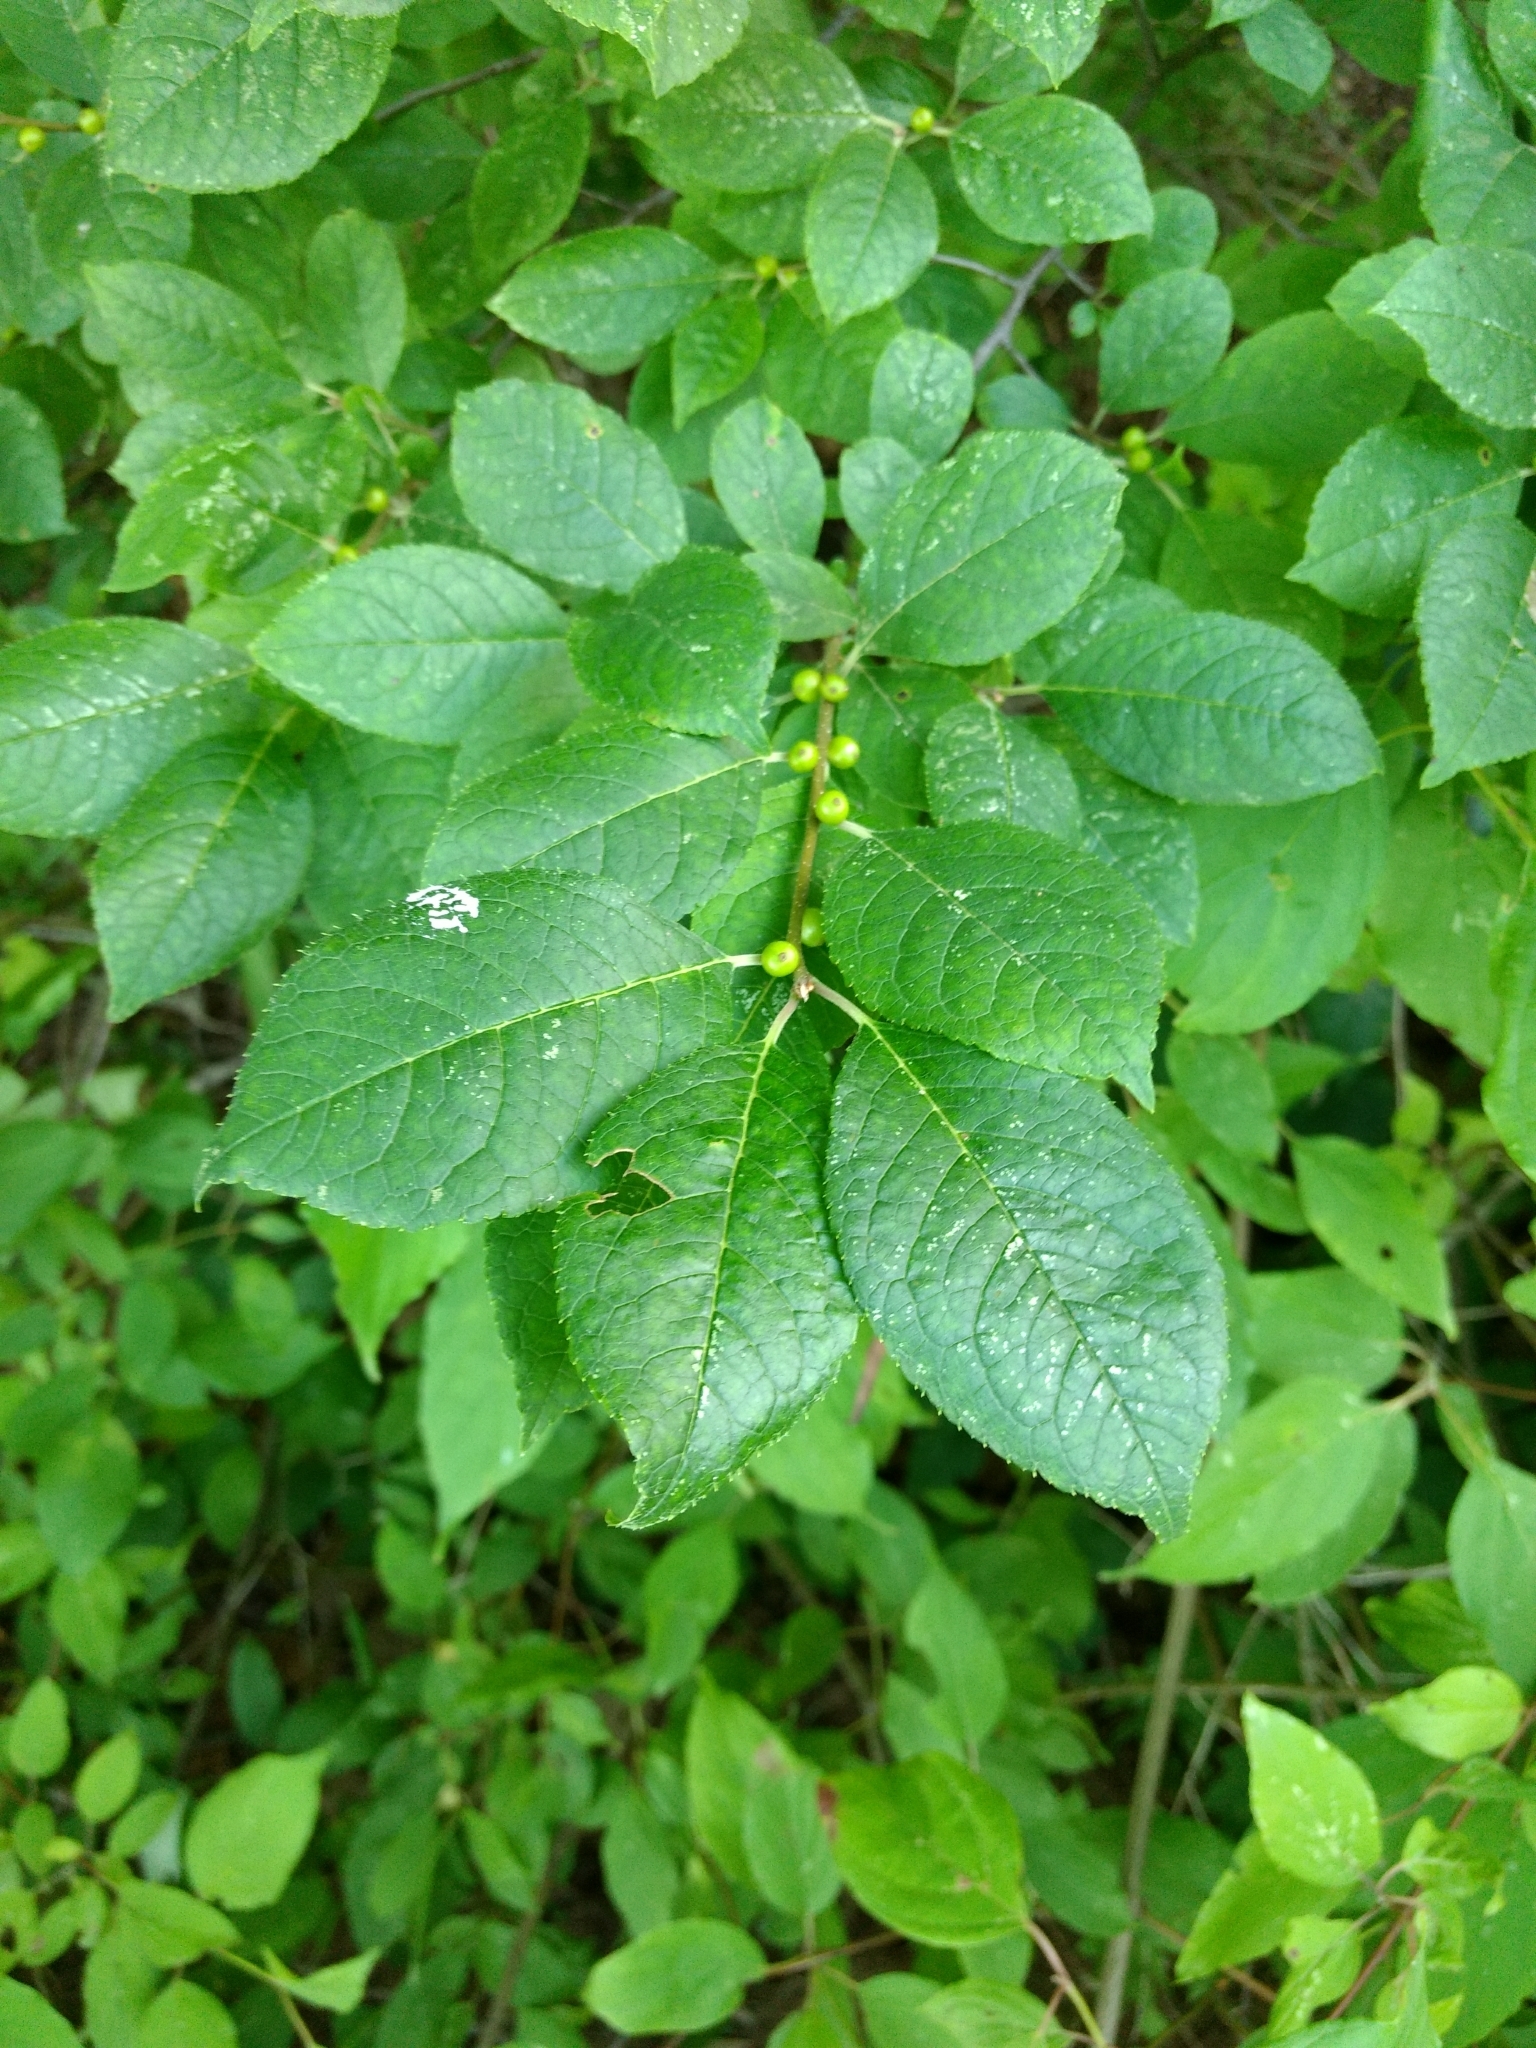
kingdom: Plantae
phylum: Tracheophyta
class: Magnoliopsida
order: Aquifoliales
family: Aquifoliaceae
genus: Ilex
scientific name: Ilex verticillata
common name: Virginia winterberry
